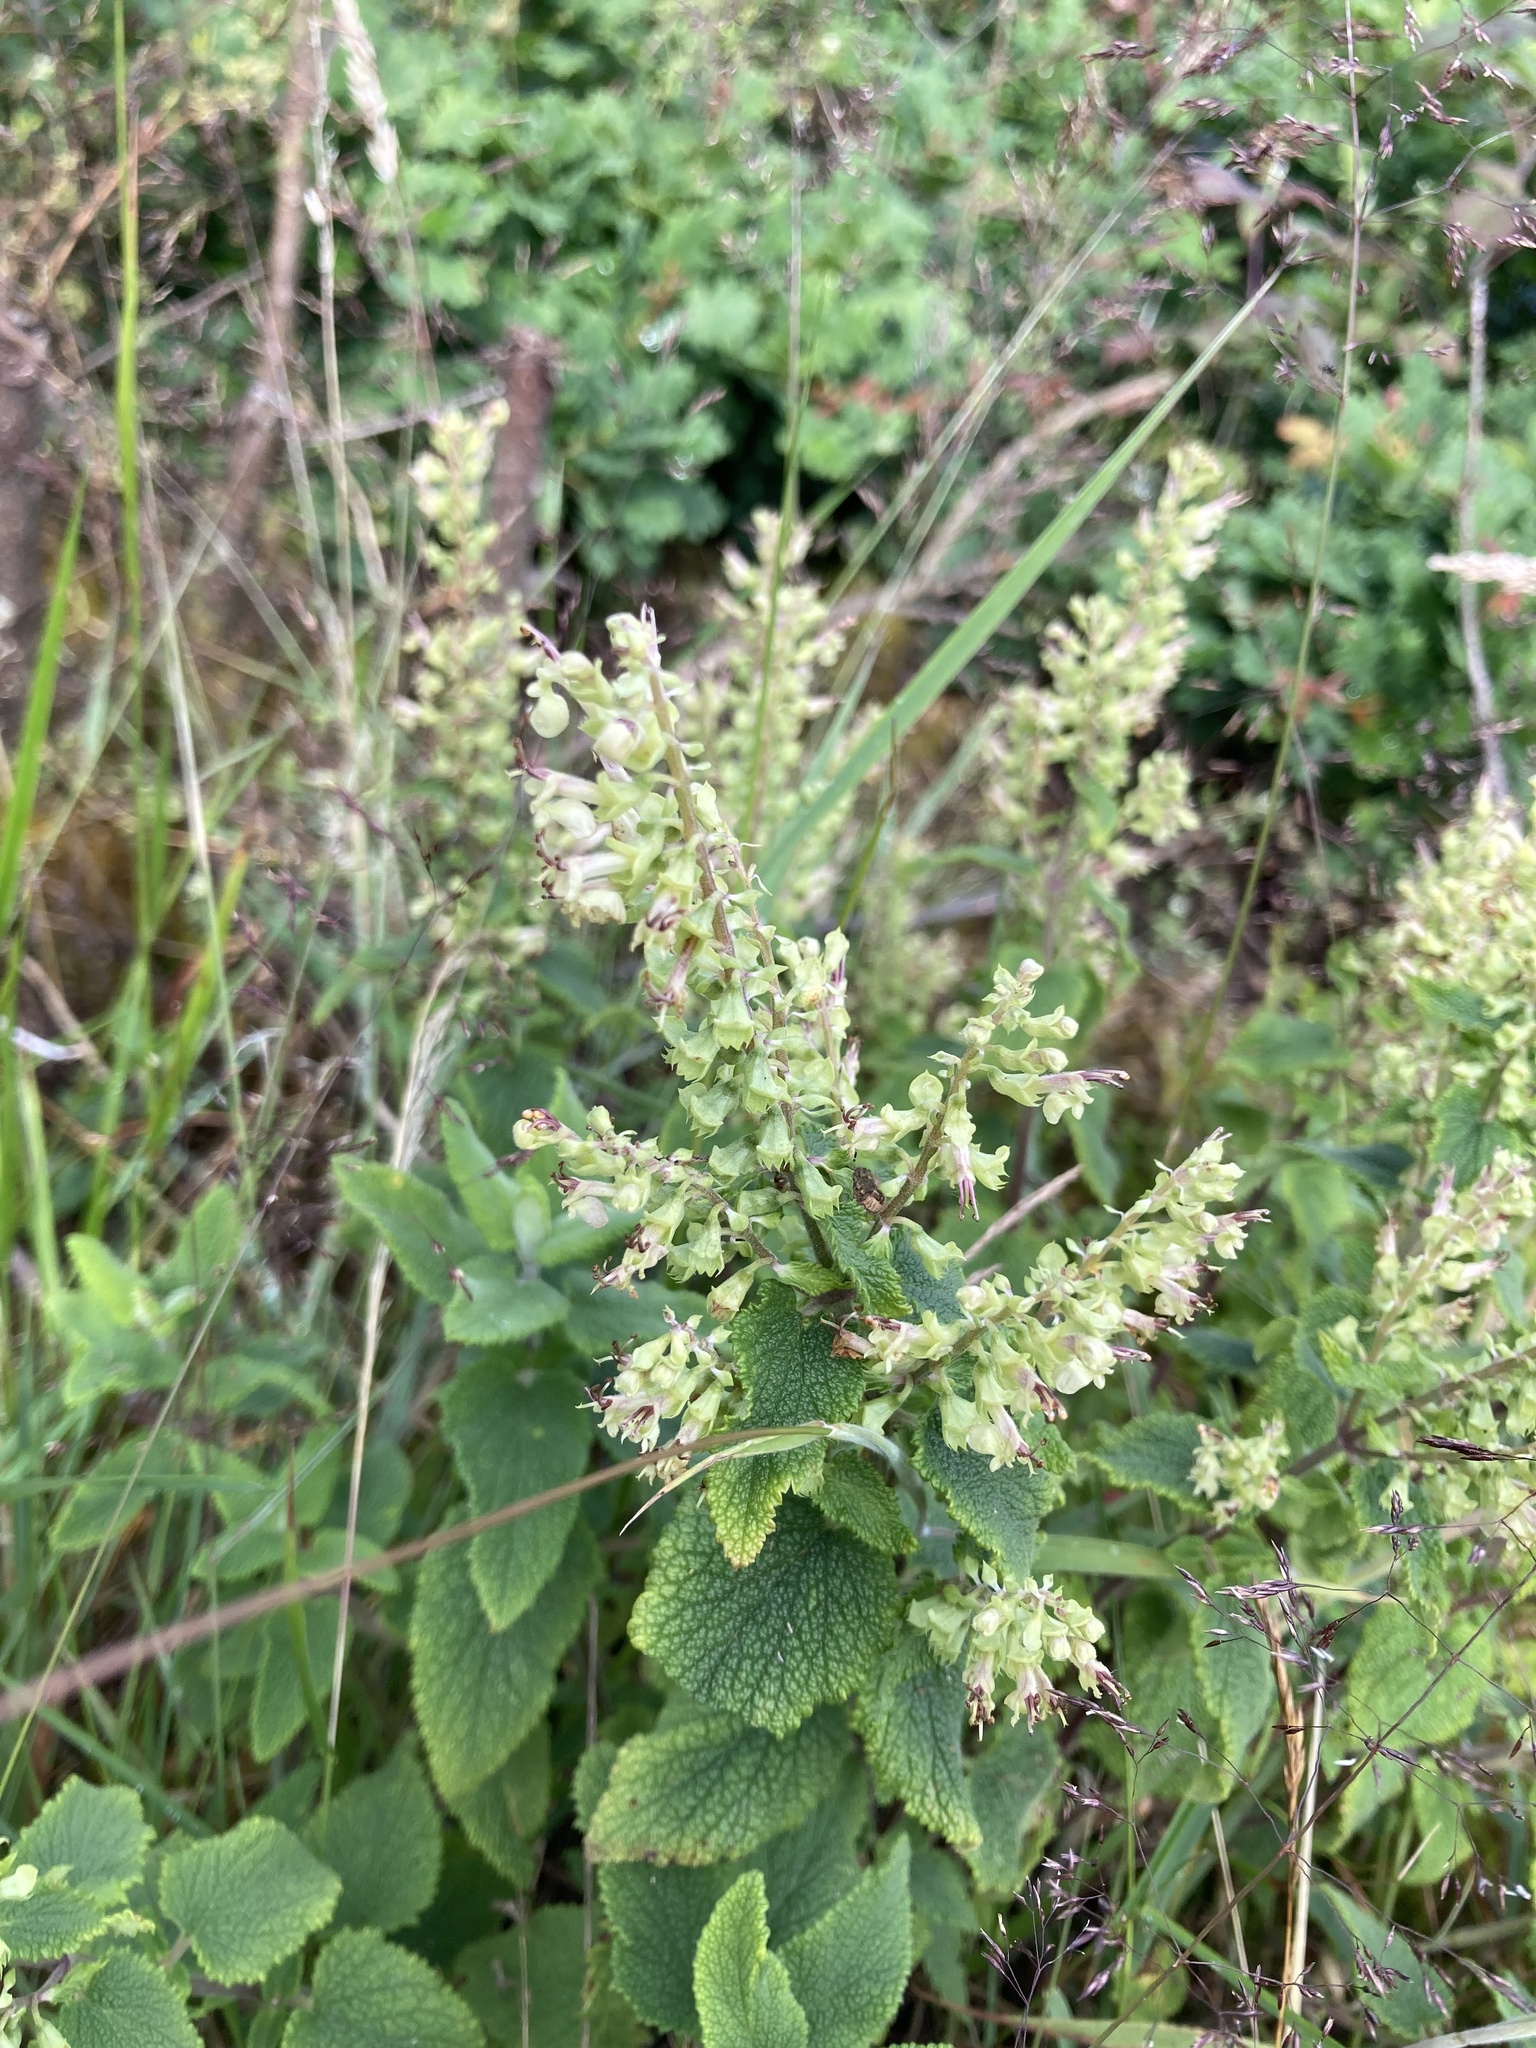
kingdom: Plantae
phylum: Tracheophyta
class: Magnoliopsida
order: Lamiales
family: Lamiaceae
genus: Teucrium
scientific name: Teucrium scorodonia
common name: Woodland germander
